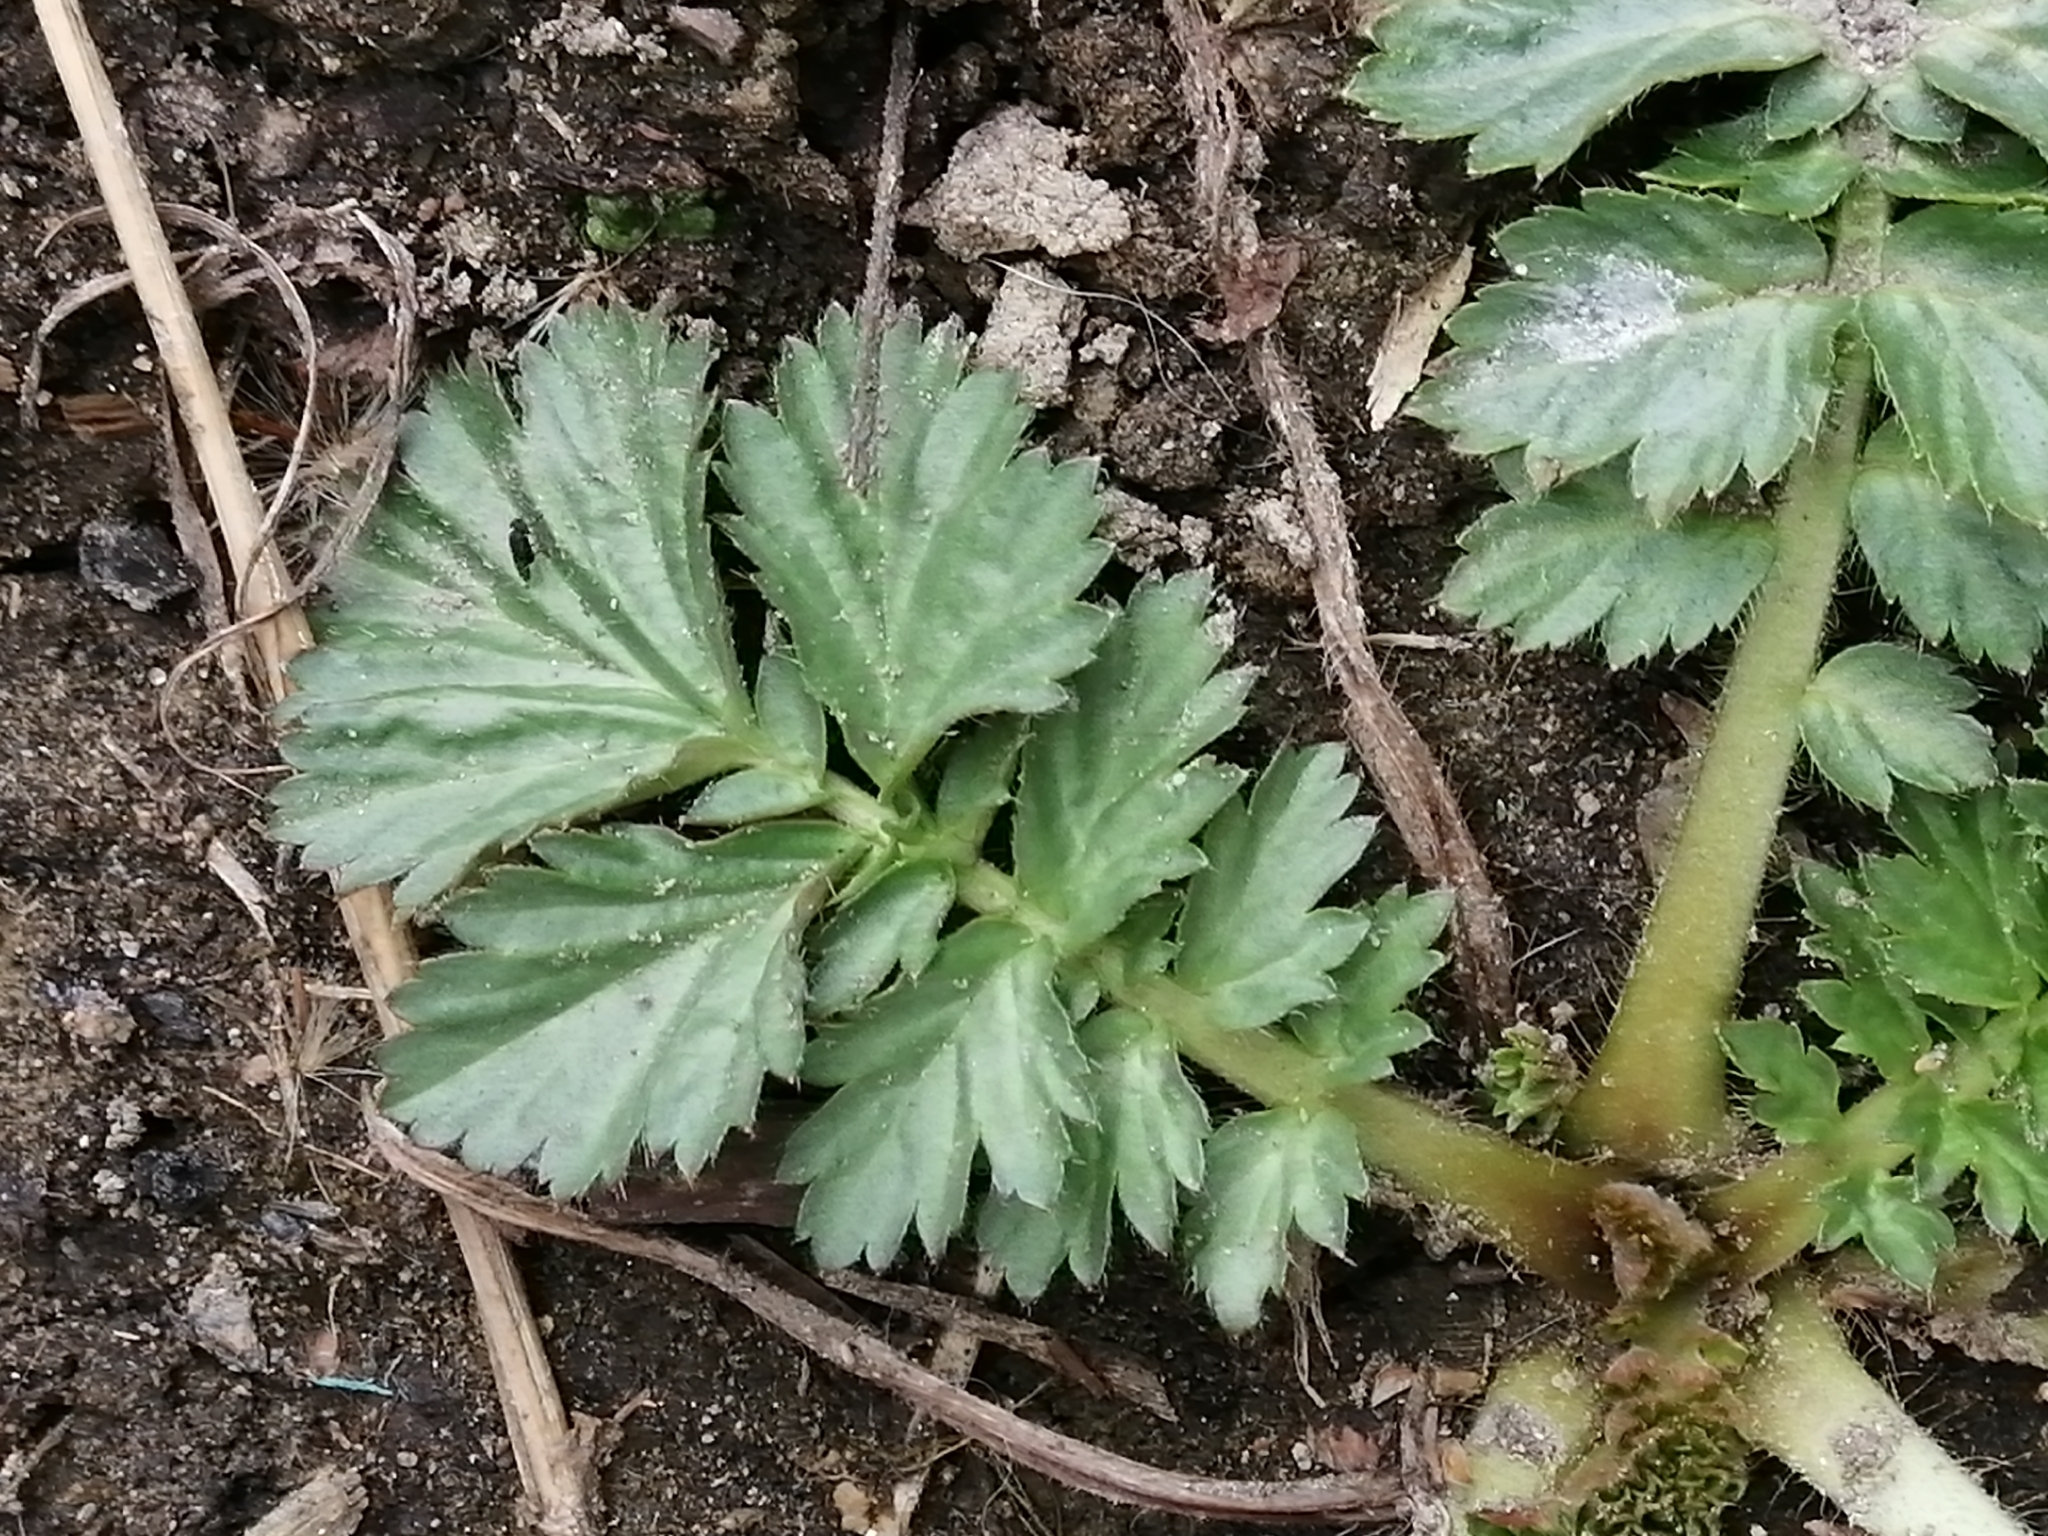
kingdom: Plantae
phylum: Tracheophyta
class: Magnoliopsida
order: Rosales
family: Rosaceae
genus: Geum
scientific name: Geum aleppicum
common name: Yellow avens
